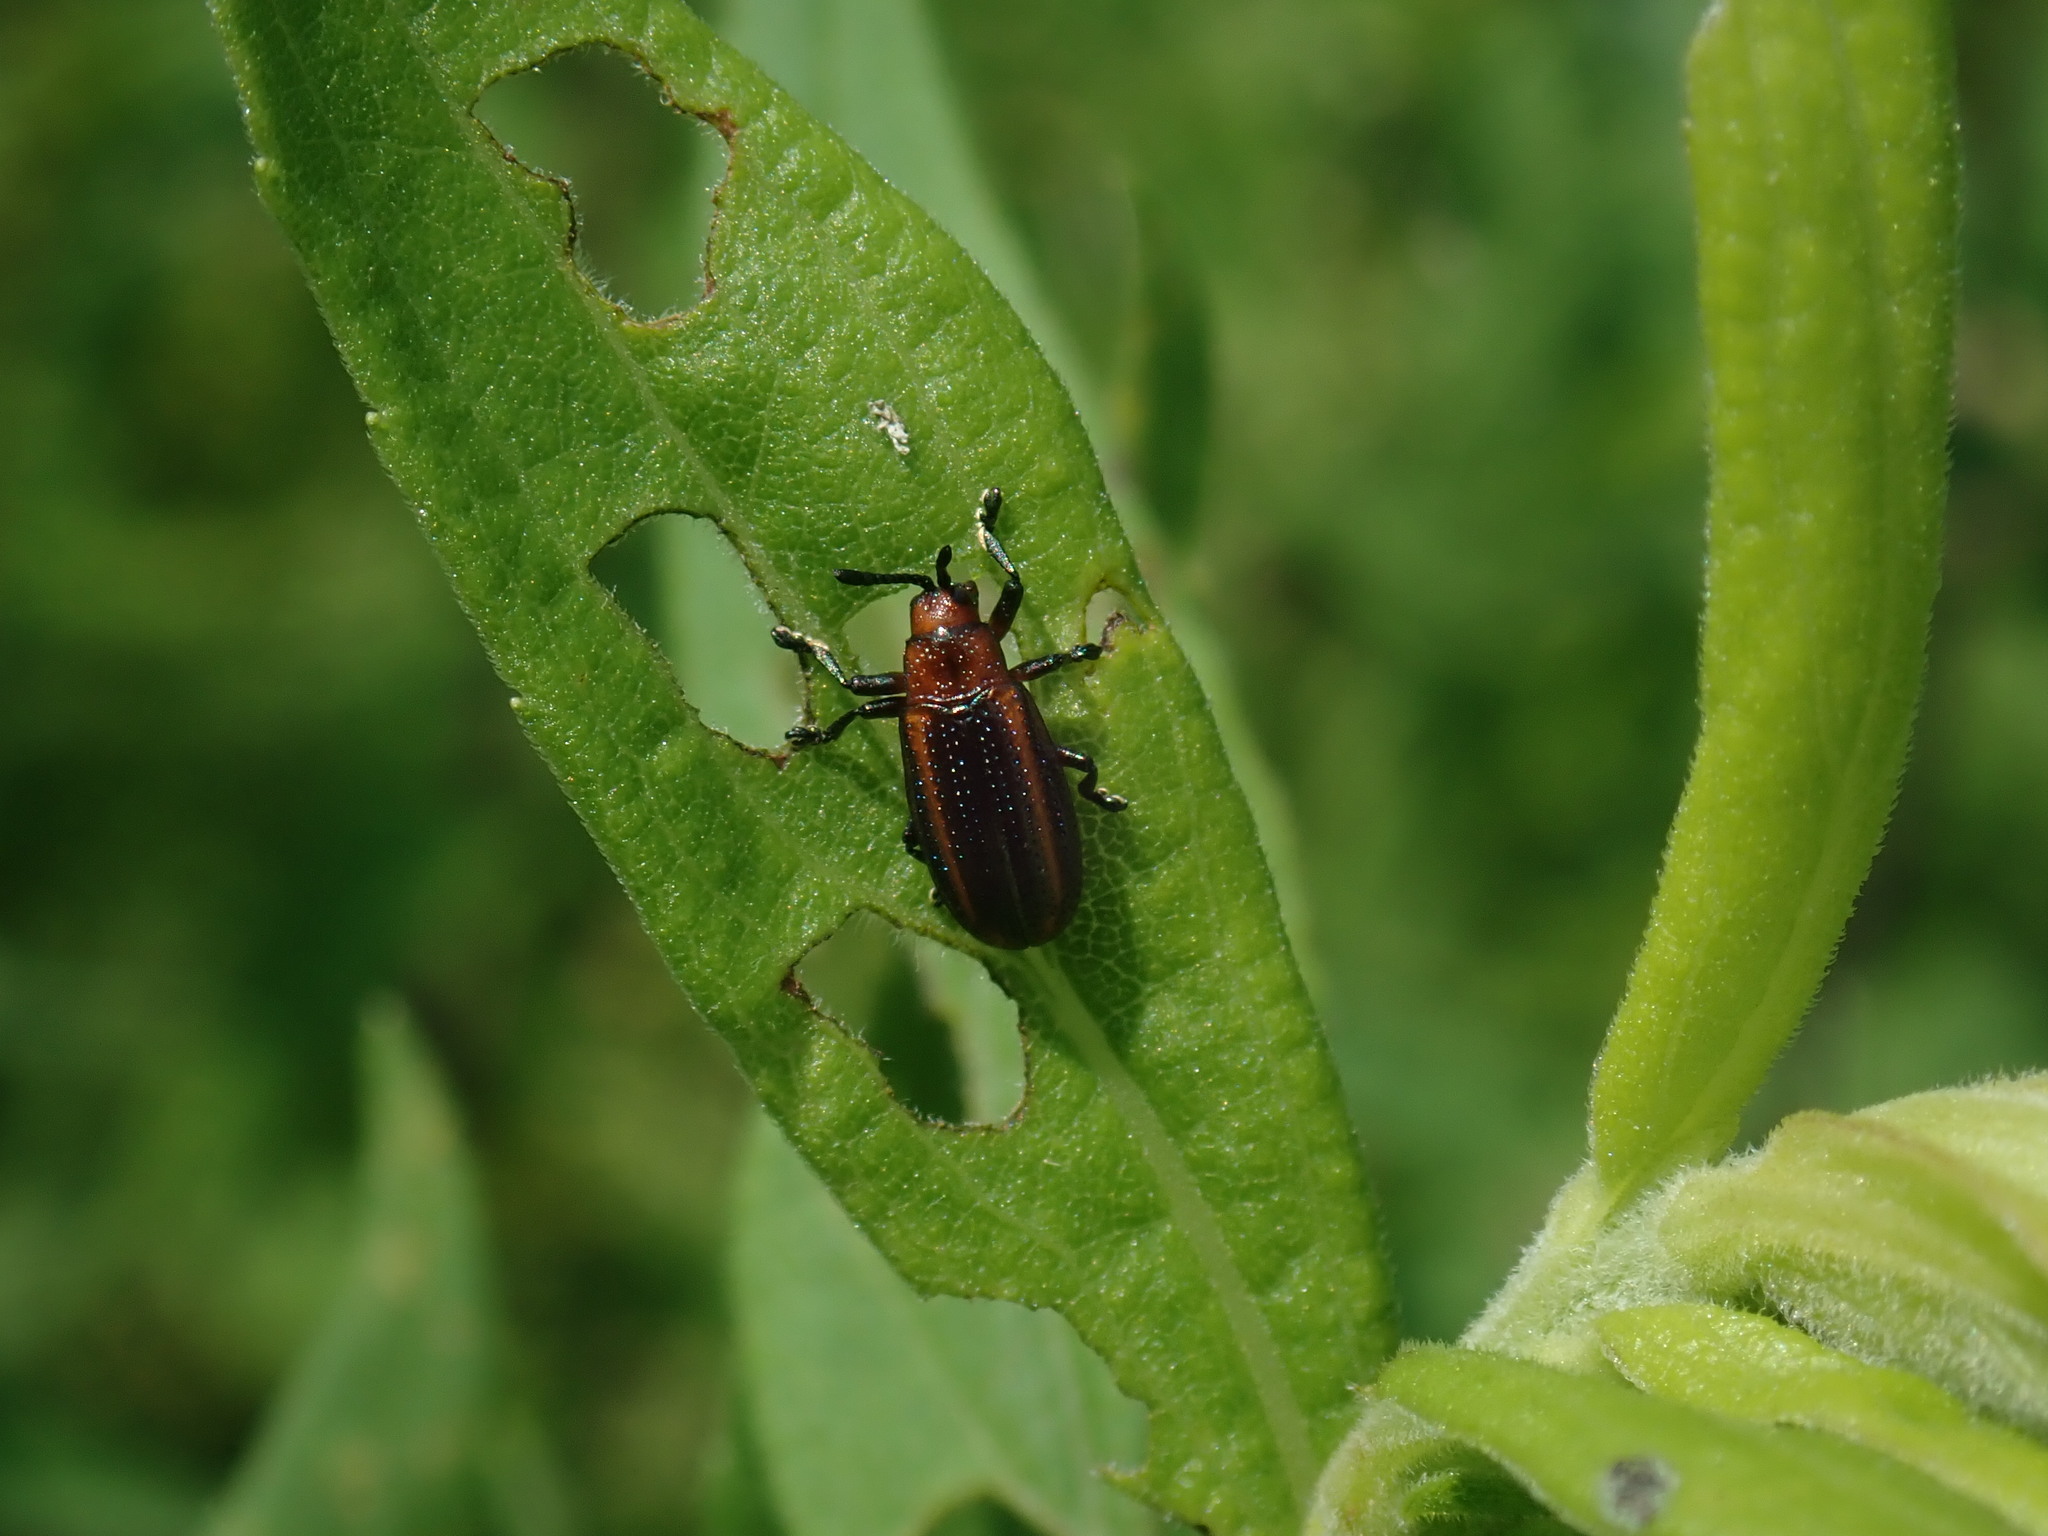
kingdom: Animalia
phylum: Arthropoda
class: Insecta
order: Coleoptera
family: Chrysomelidae
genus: Microrhopala
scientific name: Microrhopala vittata
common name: Goldenrod leaf miner beetle
